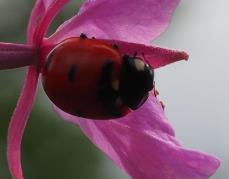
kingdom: Animalia
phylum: Arthropoda
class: Insecta
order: Coleoptera
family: Coccinellidae
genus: Coccinella
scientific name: Coccinella transversoguttata
